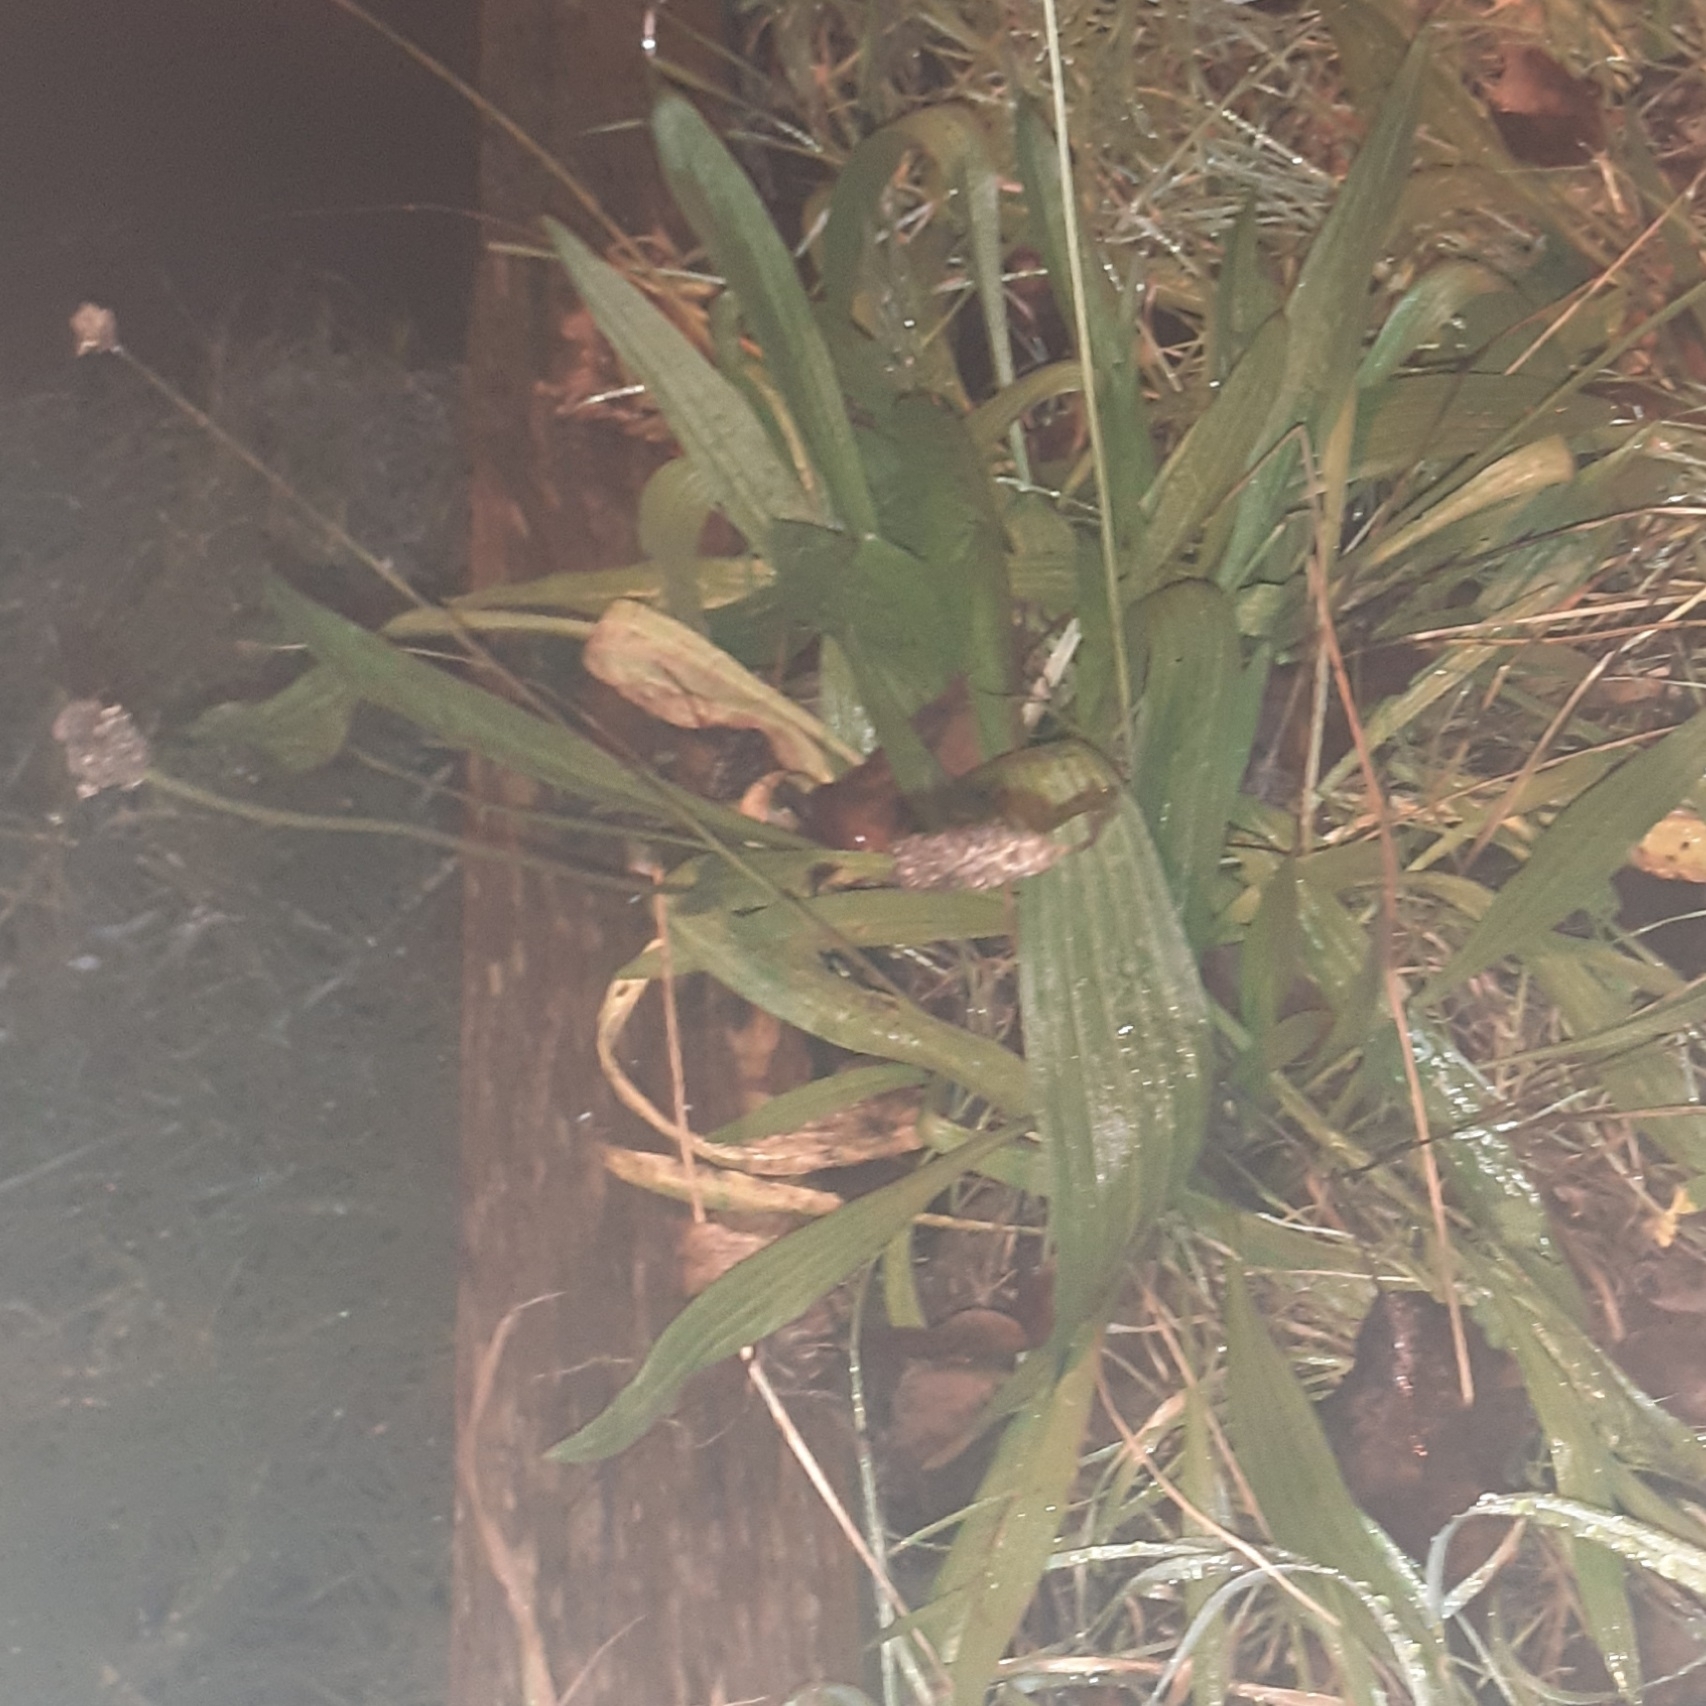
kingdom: Plantae
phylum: Tracheophyta
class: Magnoliopsida
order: Lamiales
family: Plantaginaceae
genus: Plantago
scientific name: Plantago lanceolata
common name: Ribwort plantain
